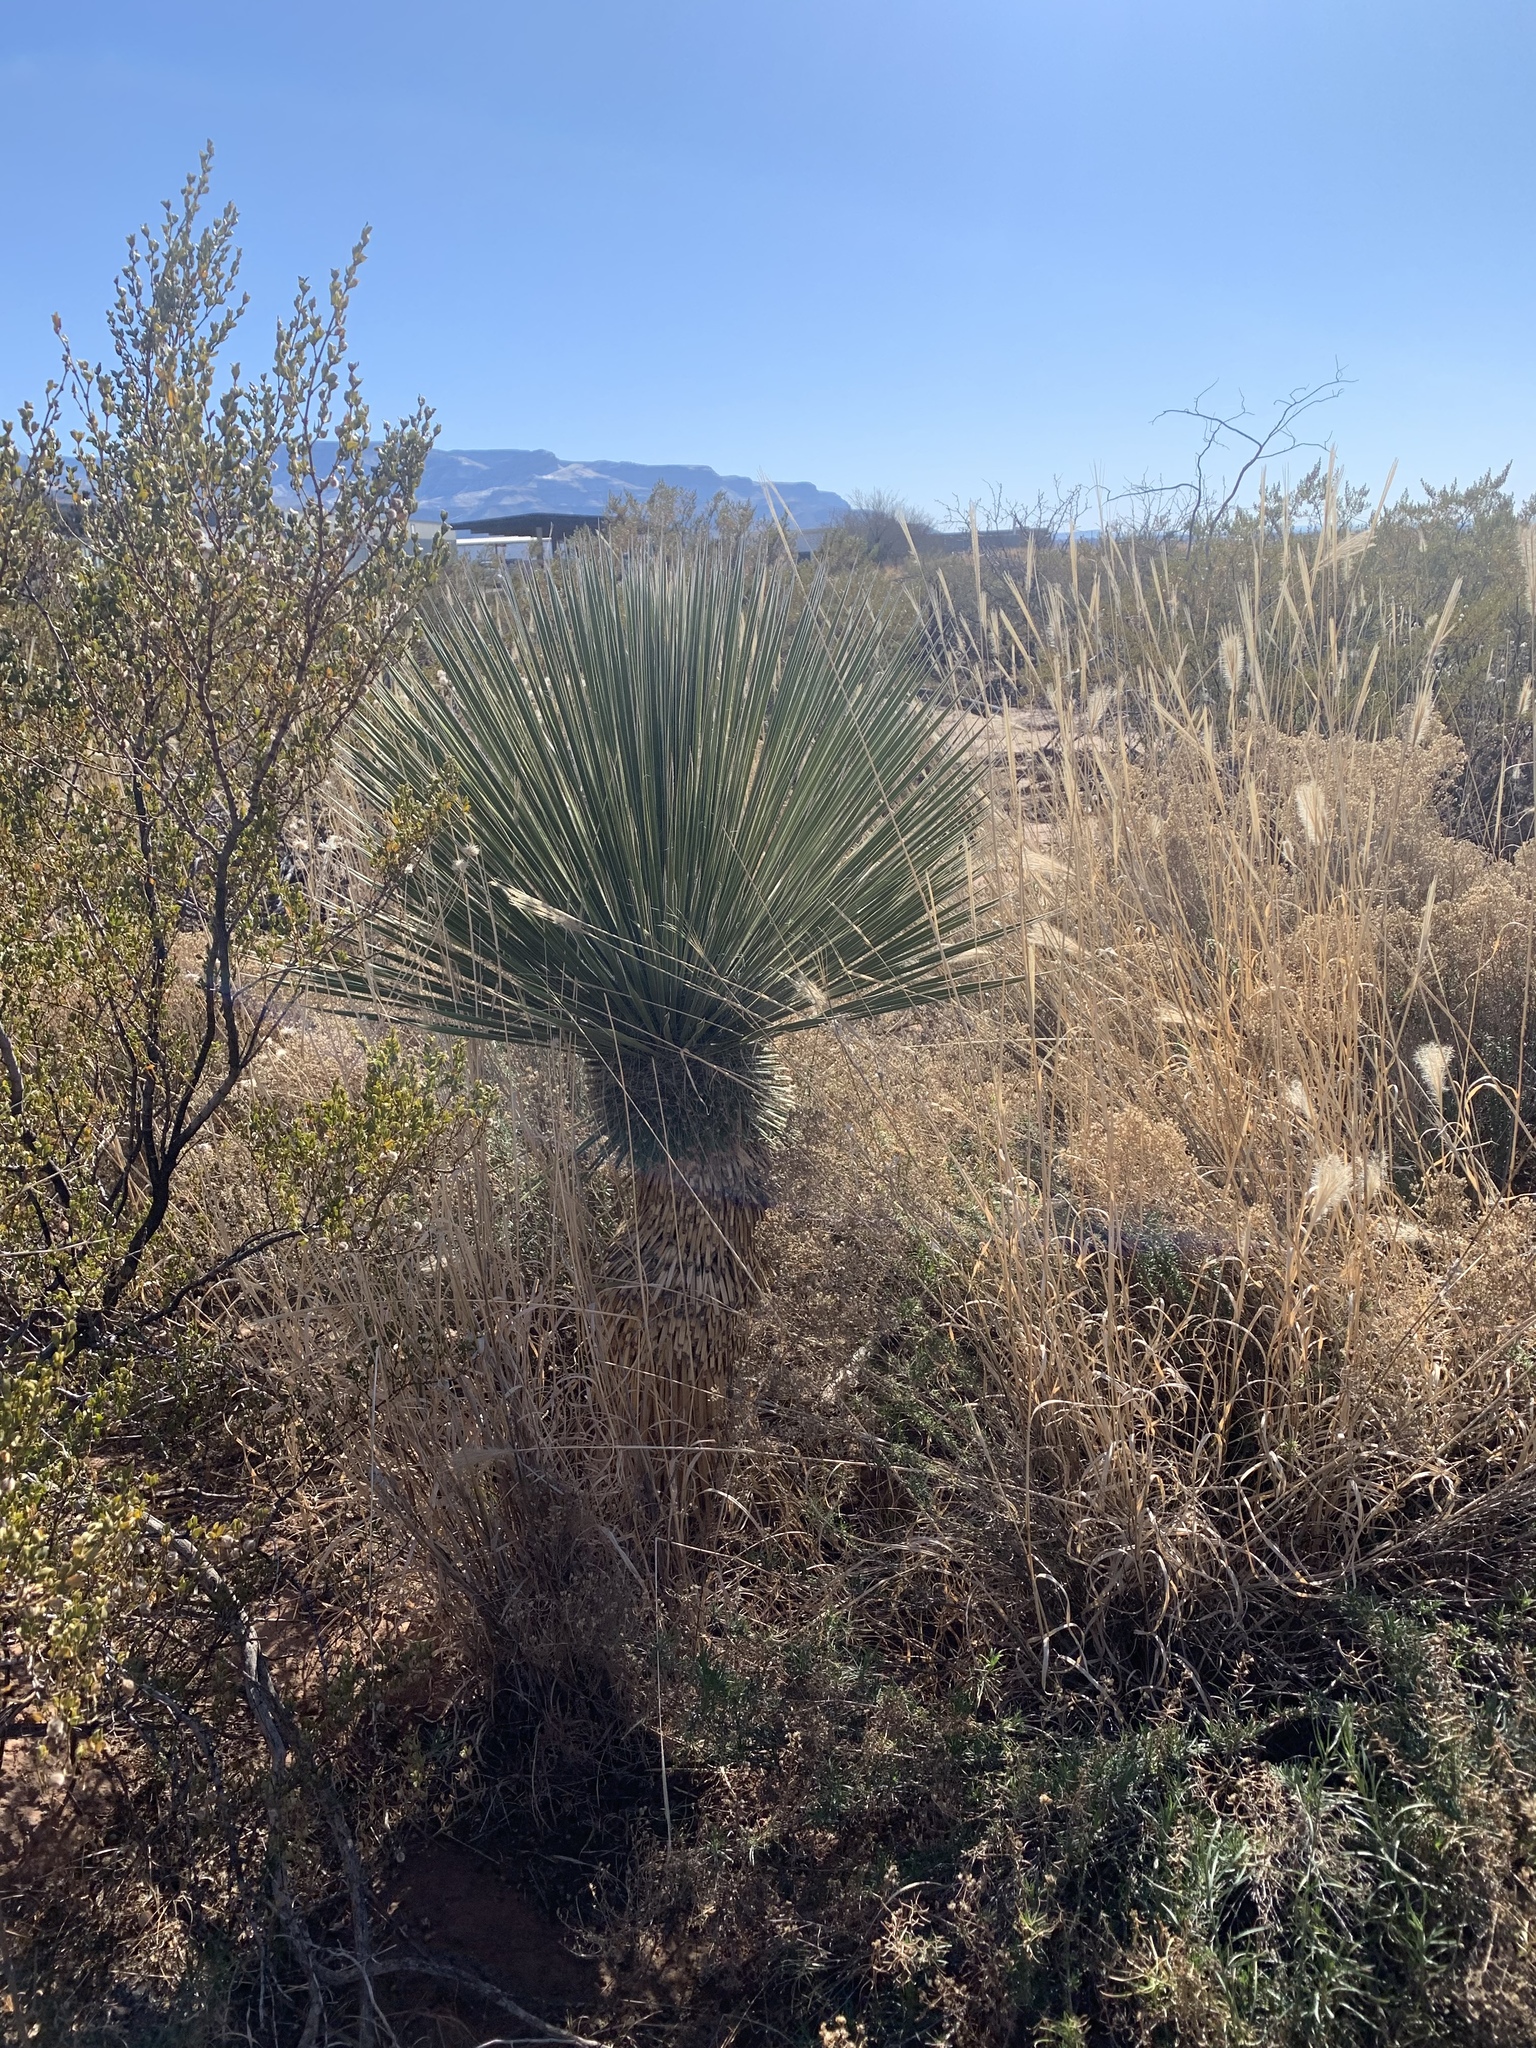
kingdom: Plantae
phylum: Tracheophyta
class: Liliopsida
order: Asparagales
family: Asparagaceae
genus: Yucca
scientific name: Yucca elata
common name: Palmella
